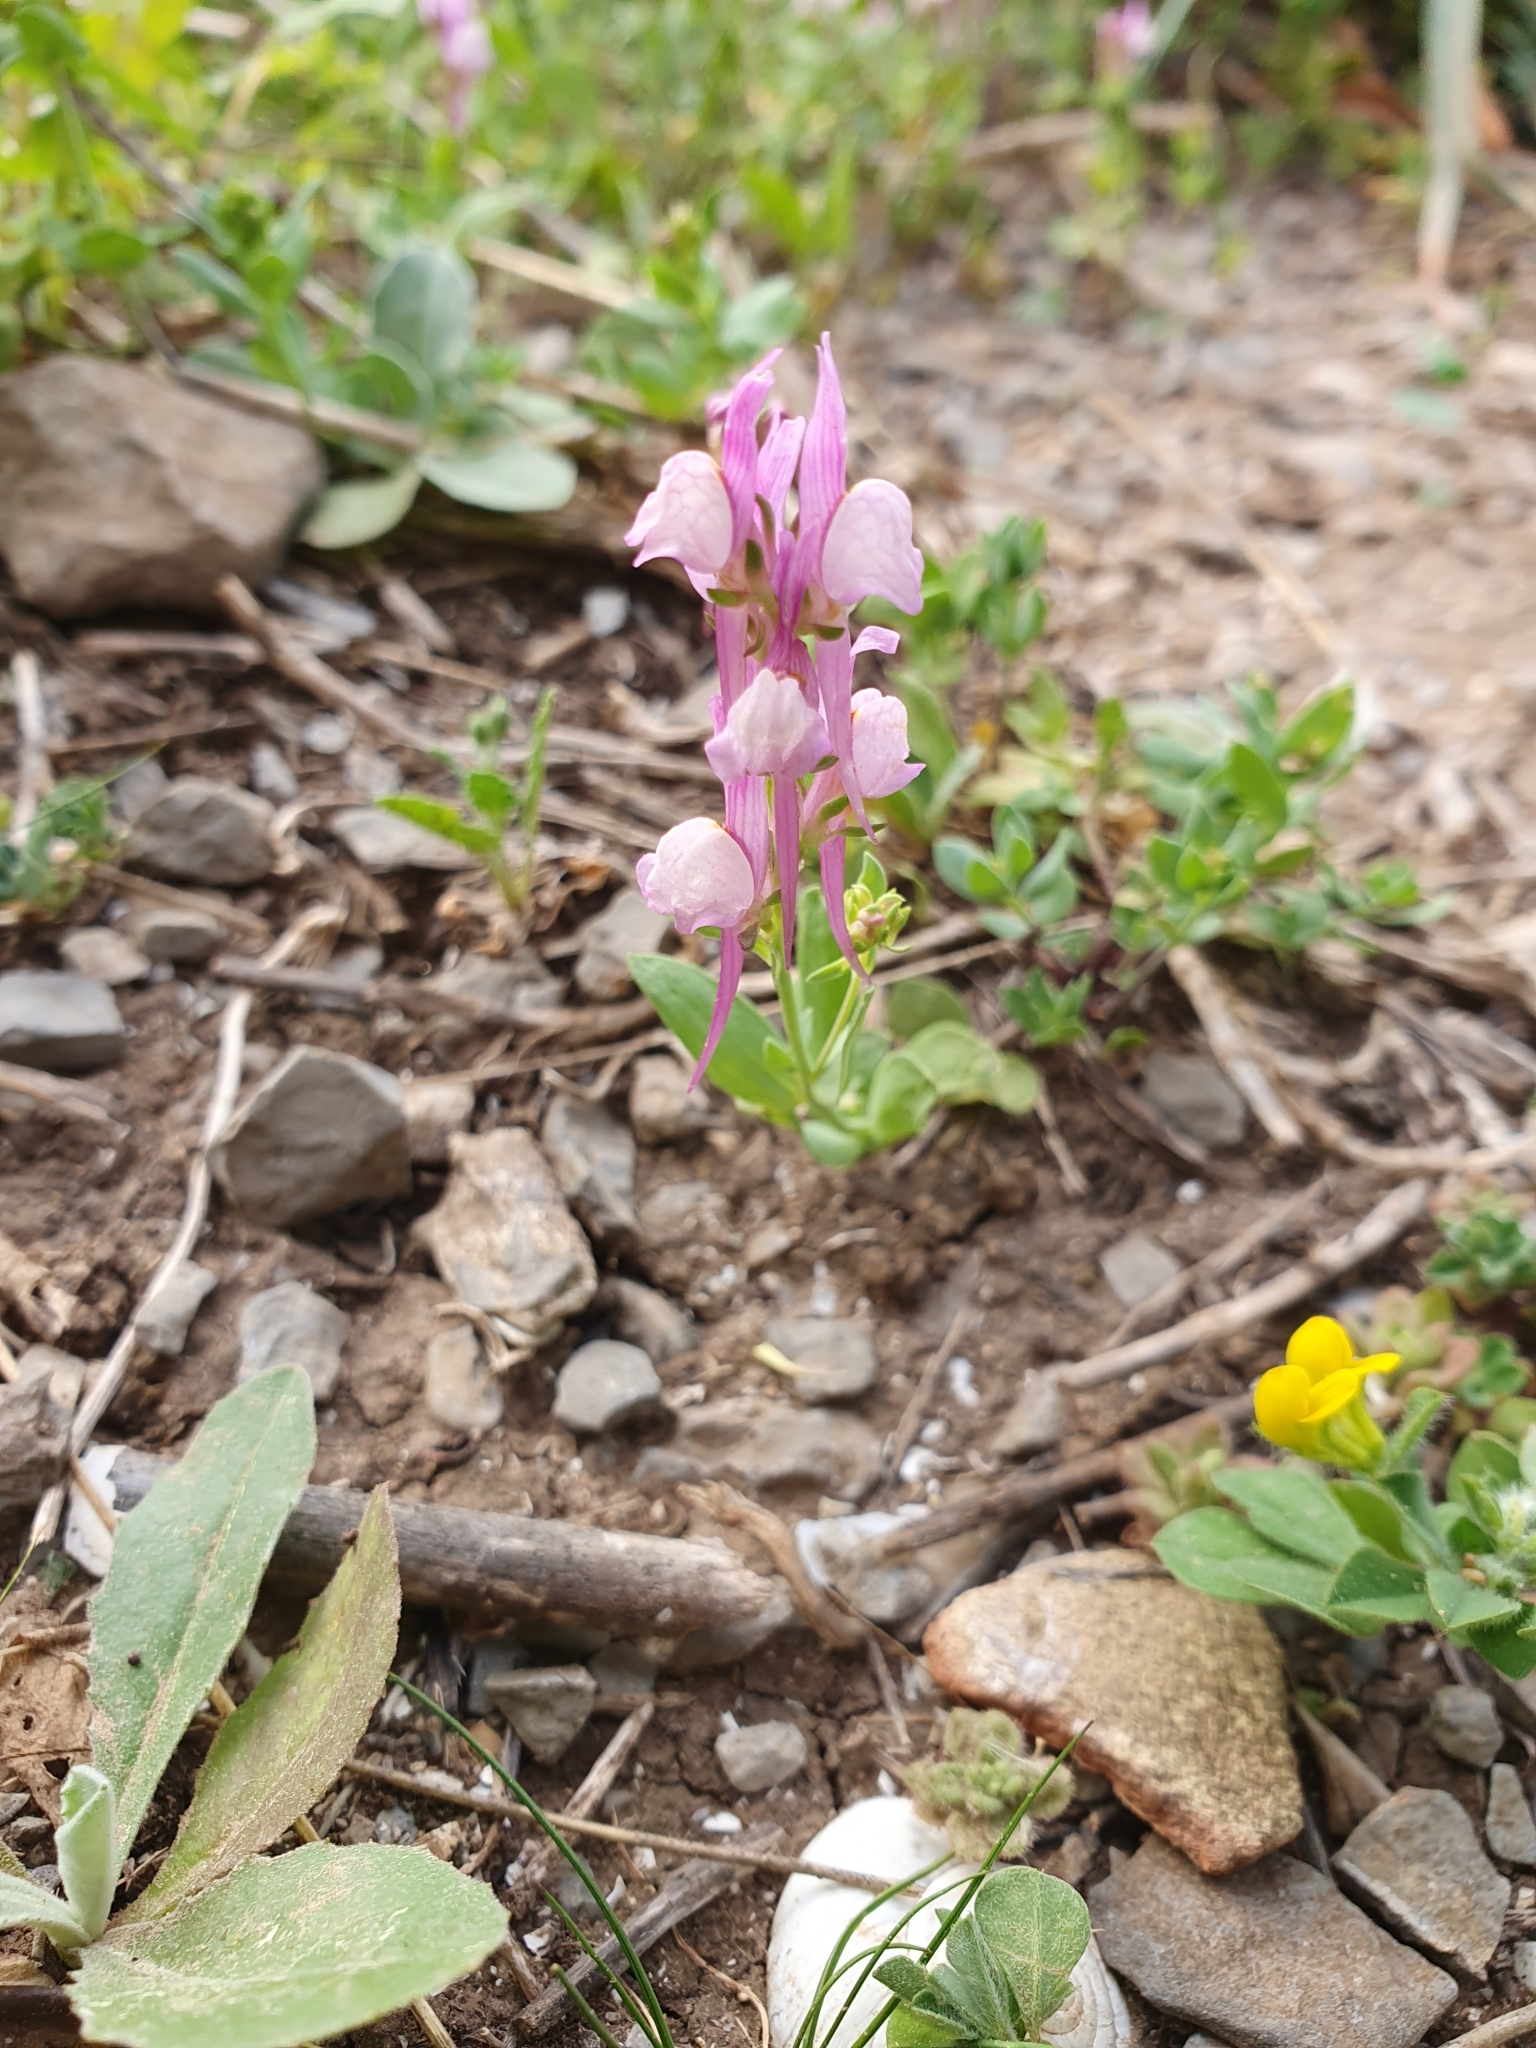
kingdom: Plantae
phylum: Tracheophyta
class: Magnoliopsida
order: Lamiales
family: Plantaginaceae
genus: Linaria
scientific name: Linaria virgata
